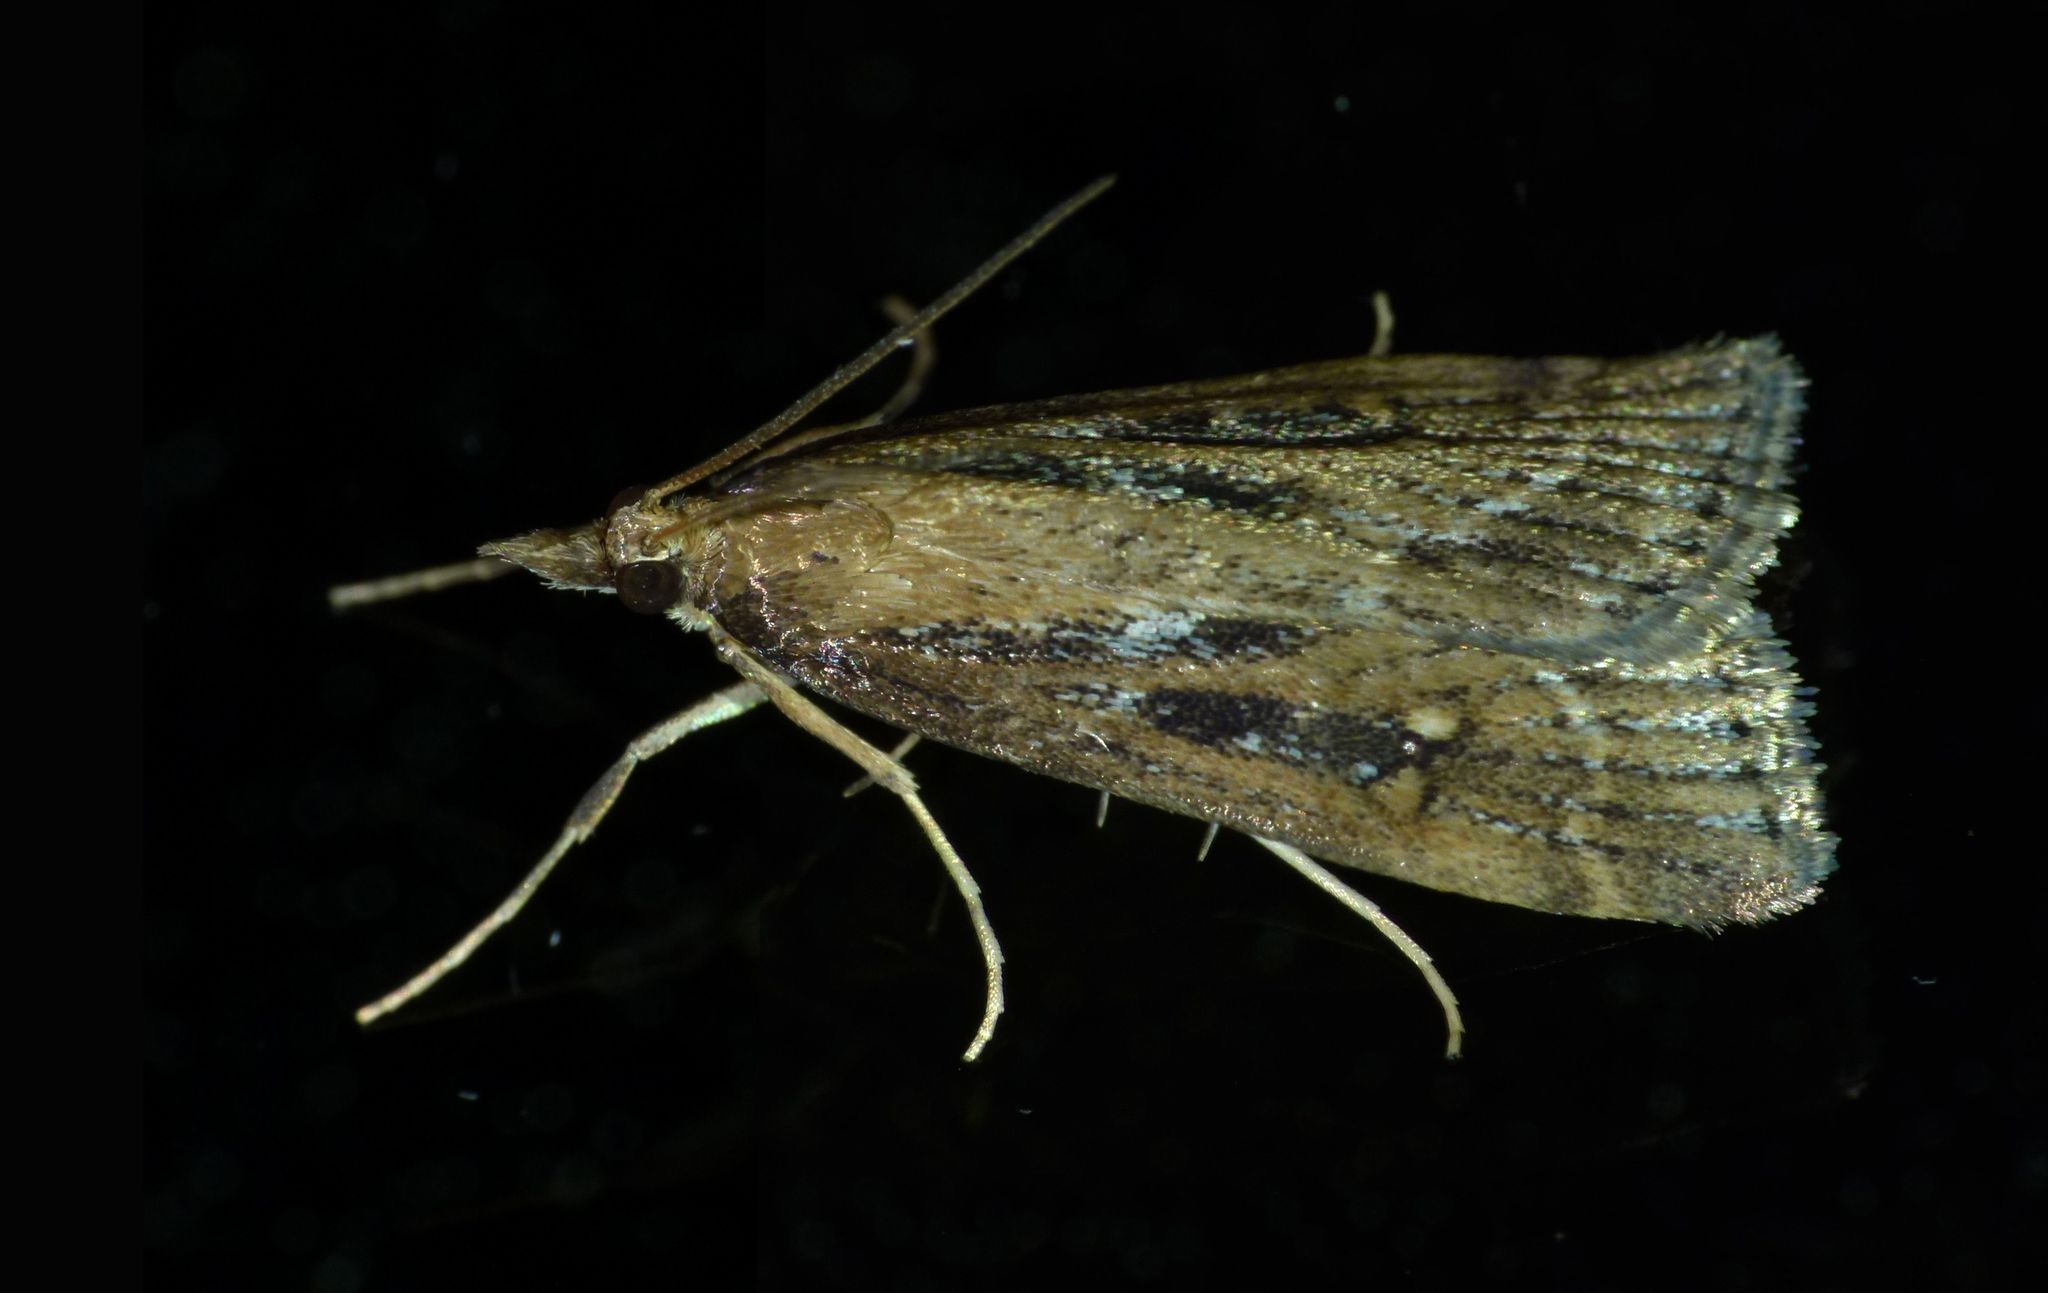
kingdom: Animalia
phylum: Arthropoda
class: Insecta
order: Lepidoptera
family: Crambidae
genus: Eudonia
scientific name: Eudonia octophora
